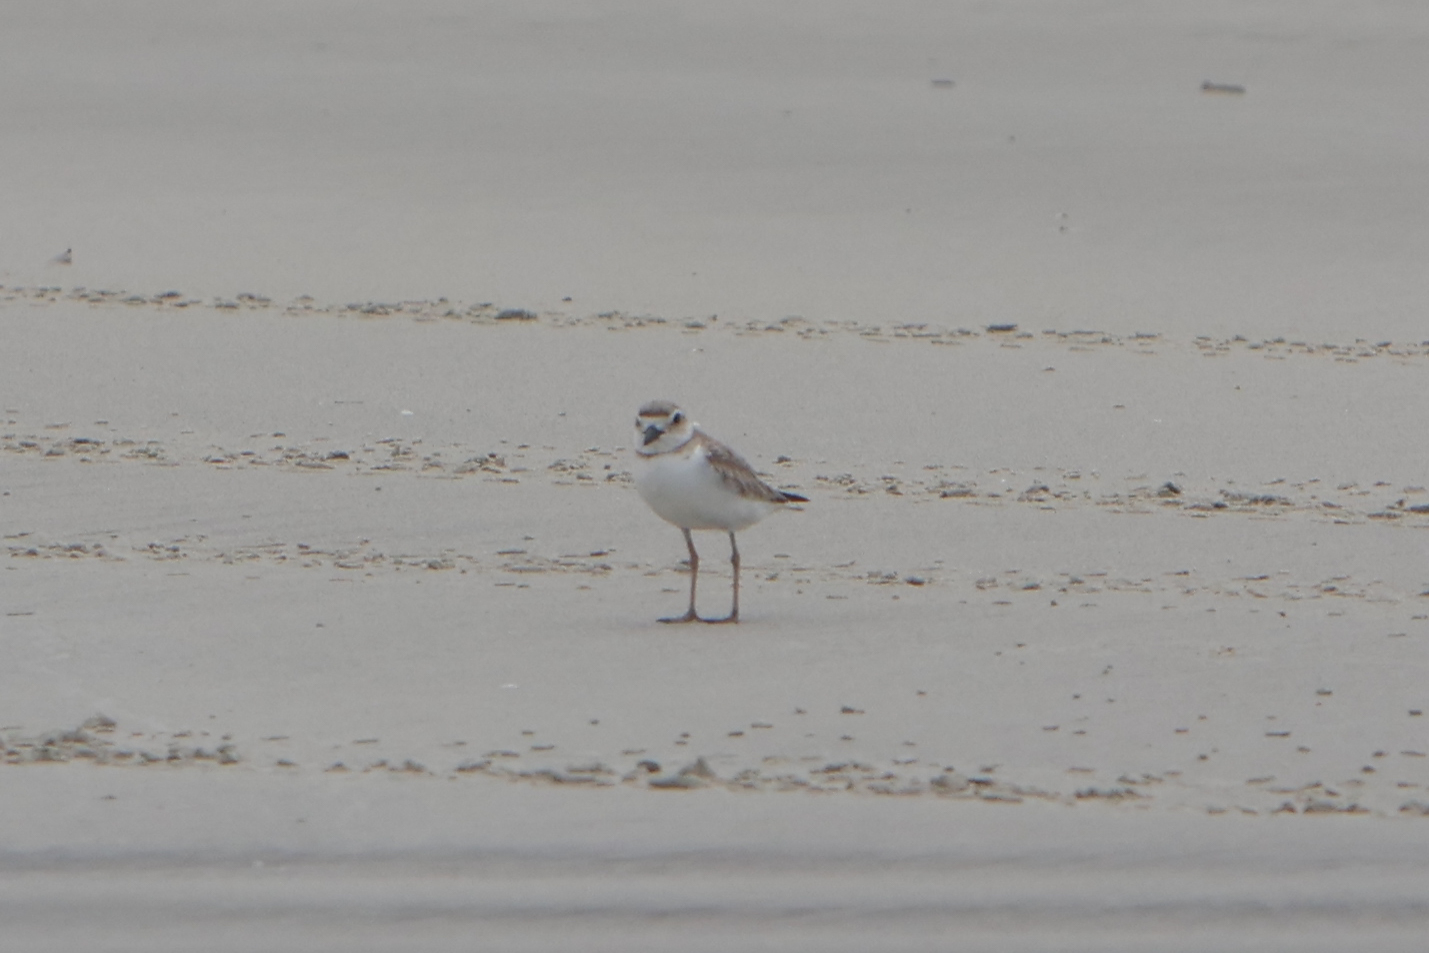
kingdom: Animalia
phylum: Chordata
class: Aves
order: Charadriiformes
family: Charadriidae
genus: Anarhynchus
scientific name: Anarhynchus
